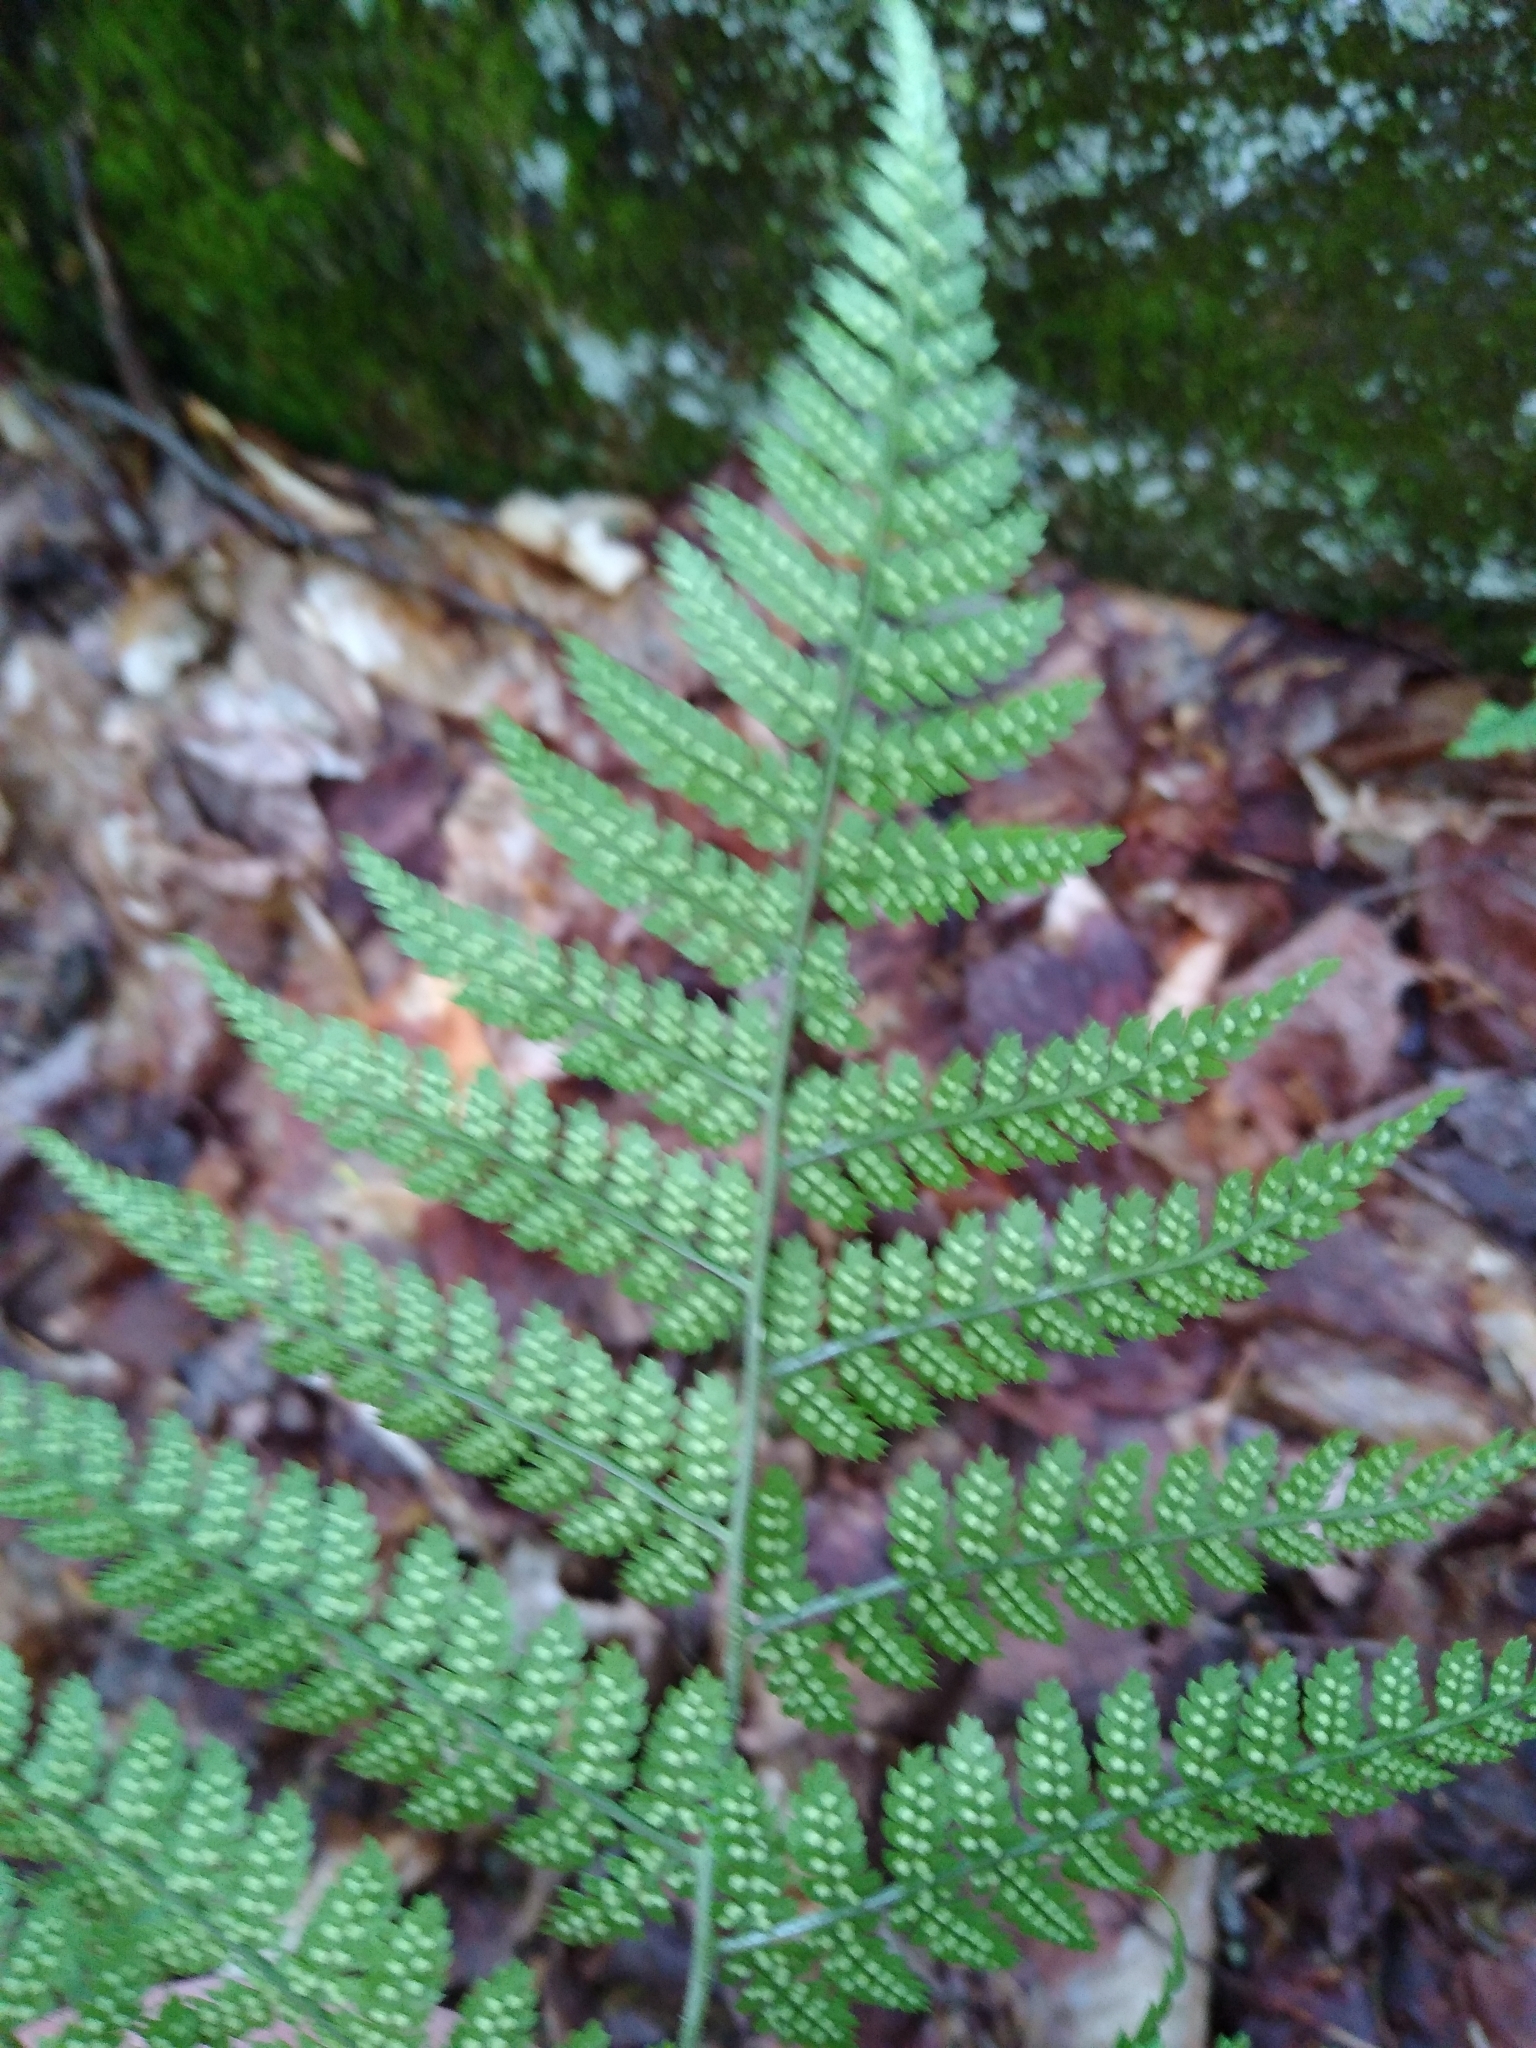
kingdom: Plantae
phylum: Tracheophyta
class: Polypodiopsida
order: Polypodiales
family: Dryopteridaceae
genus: Dryopteris
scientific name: Dryopteris intermedia
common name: Evergreen wood fern
